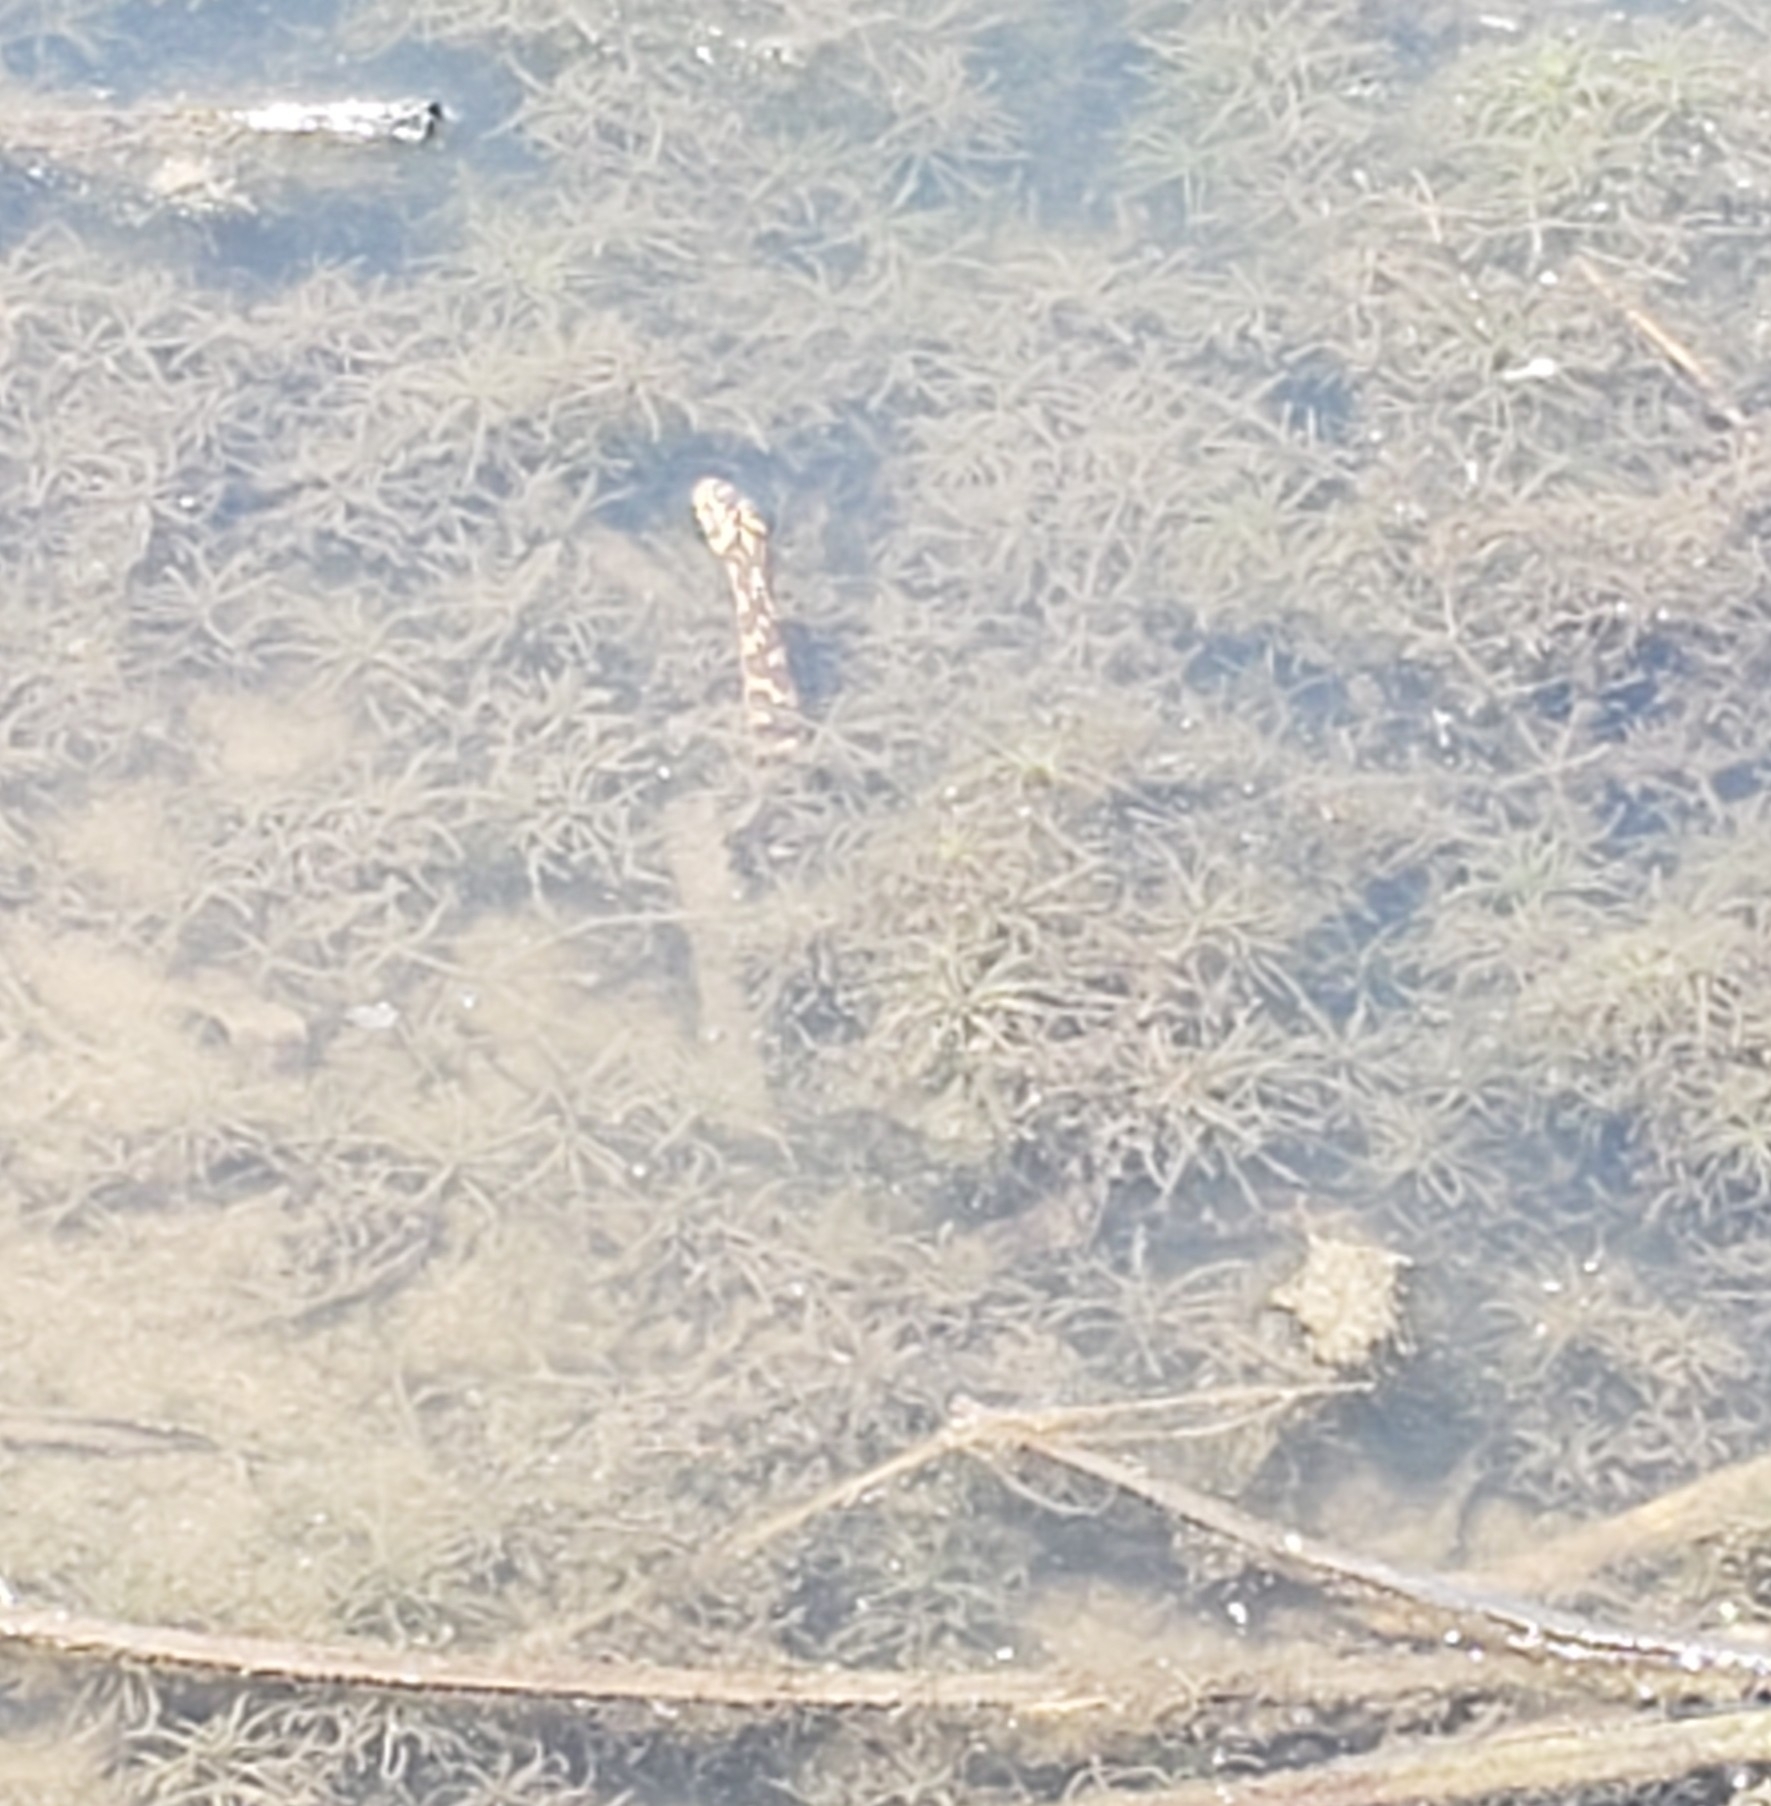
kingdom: Animalia
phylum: Chordata
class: Squamata
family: Colubridae
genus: Nerodia
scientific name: Nerodia sipedon
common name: Northern water snake
